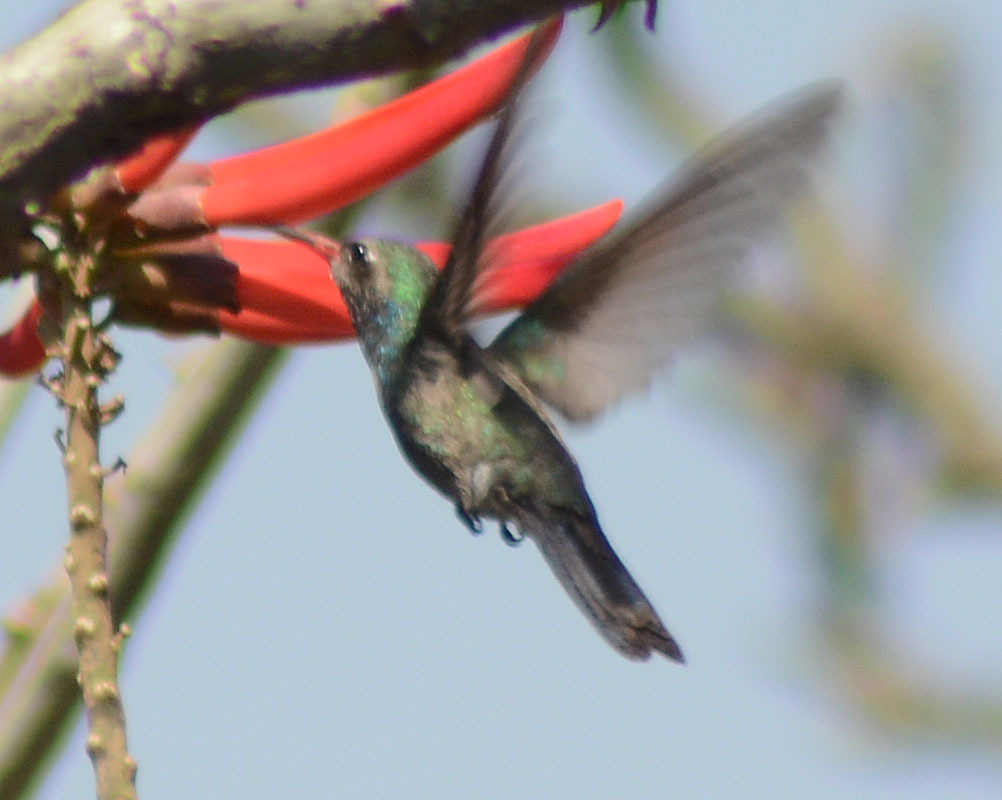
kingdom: Animalia
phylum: Chordata
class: Aves
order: Apodiformes
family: Trochilidae
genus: Cynanthus
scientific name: Cynanthus latirostris
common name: Broad-billed hummingbird
